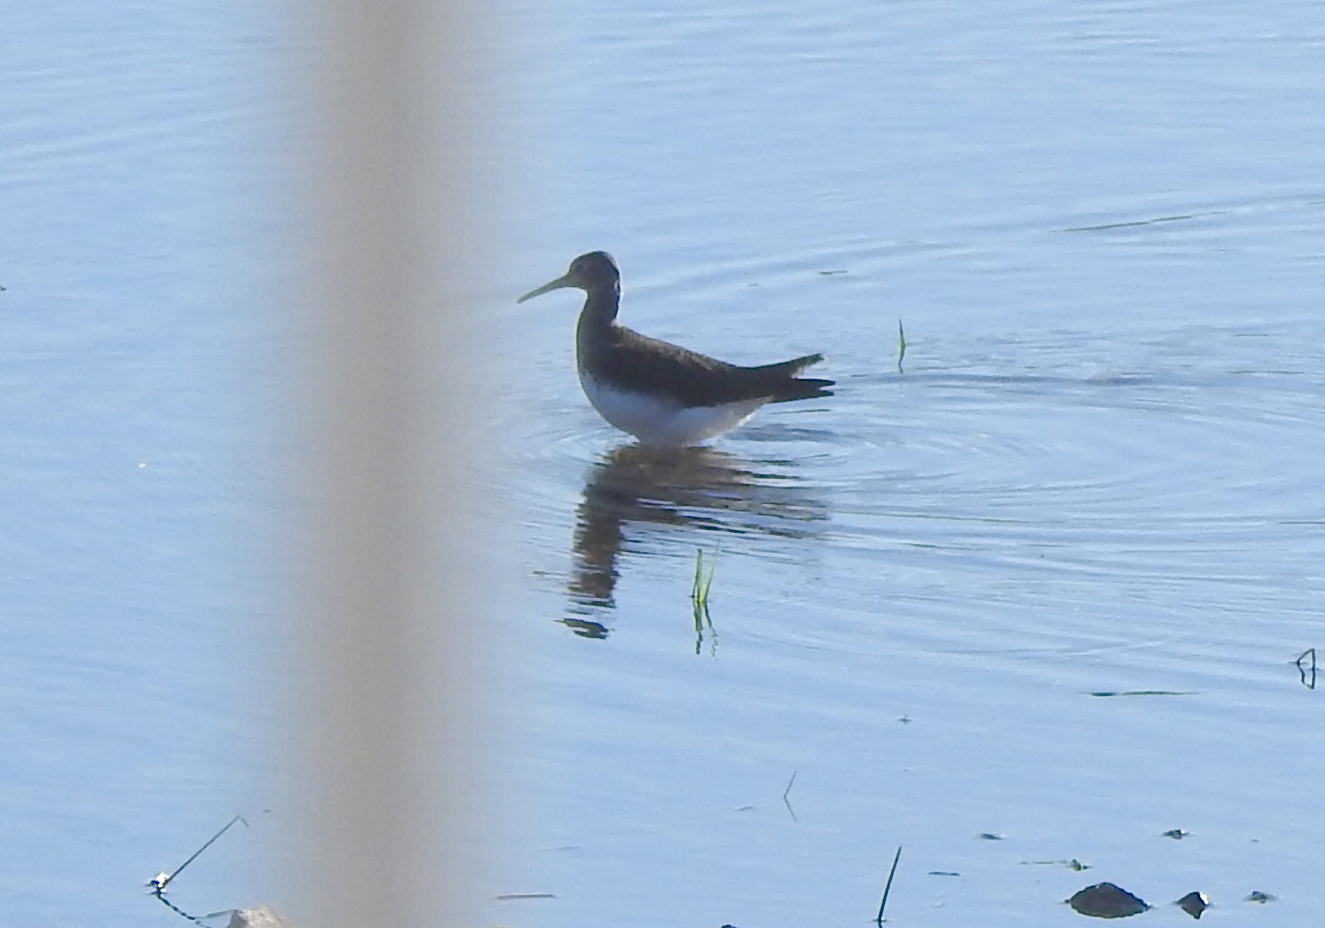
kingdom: Animalia
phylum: Chordata
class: Aves
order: Charadriiformes
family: Scolopacidae
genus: Tringa
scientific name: Tringa ochropus
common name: Green sandpiper
